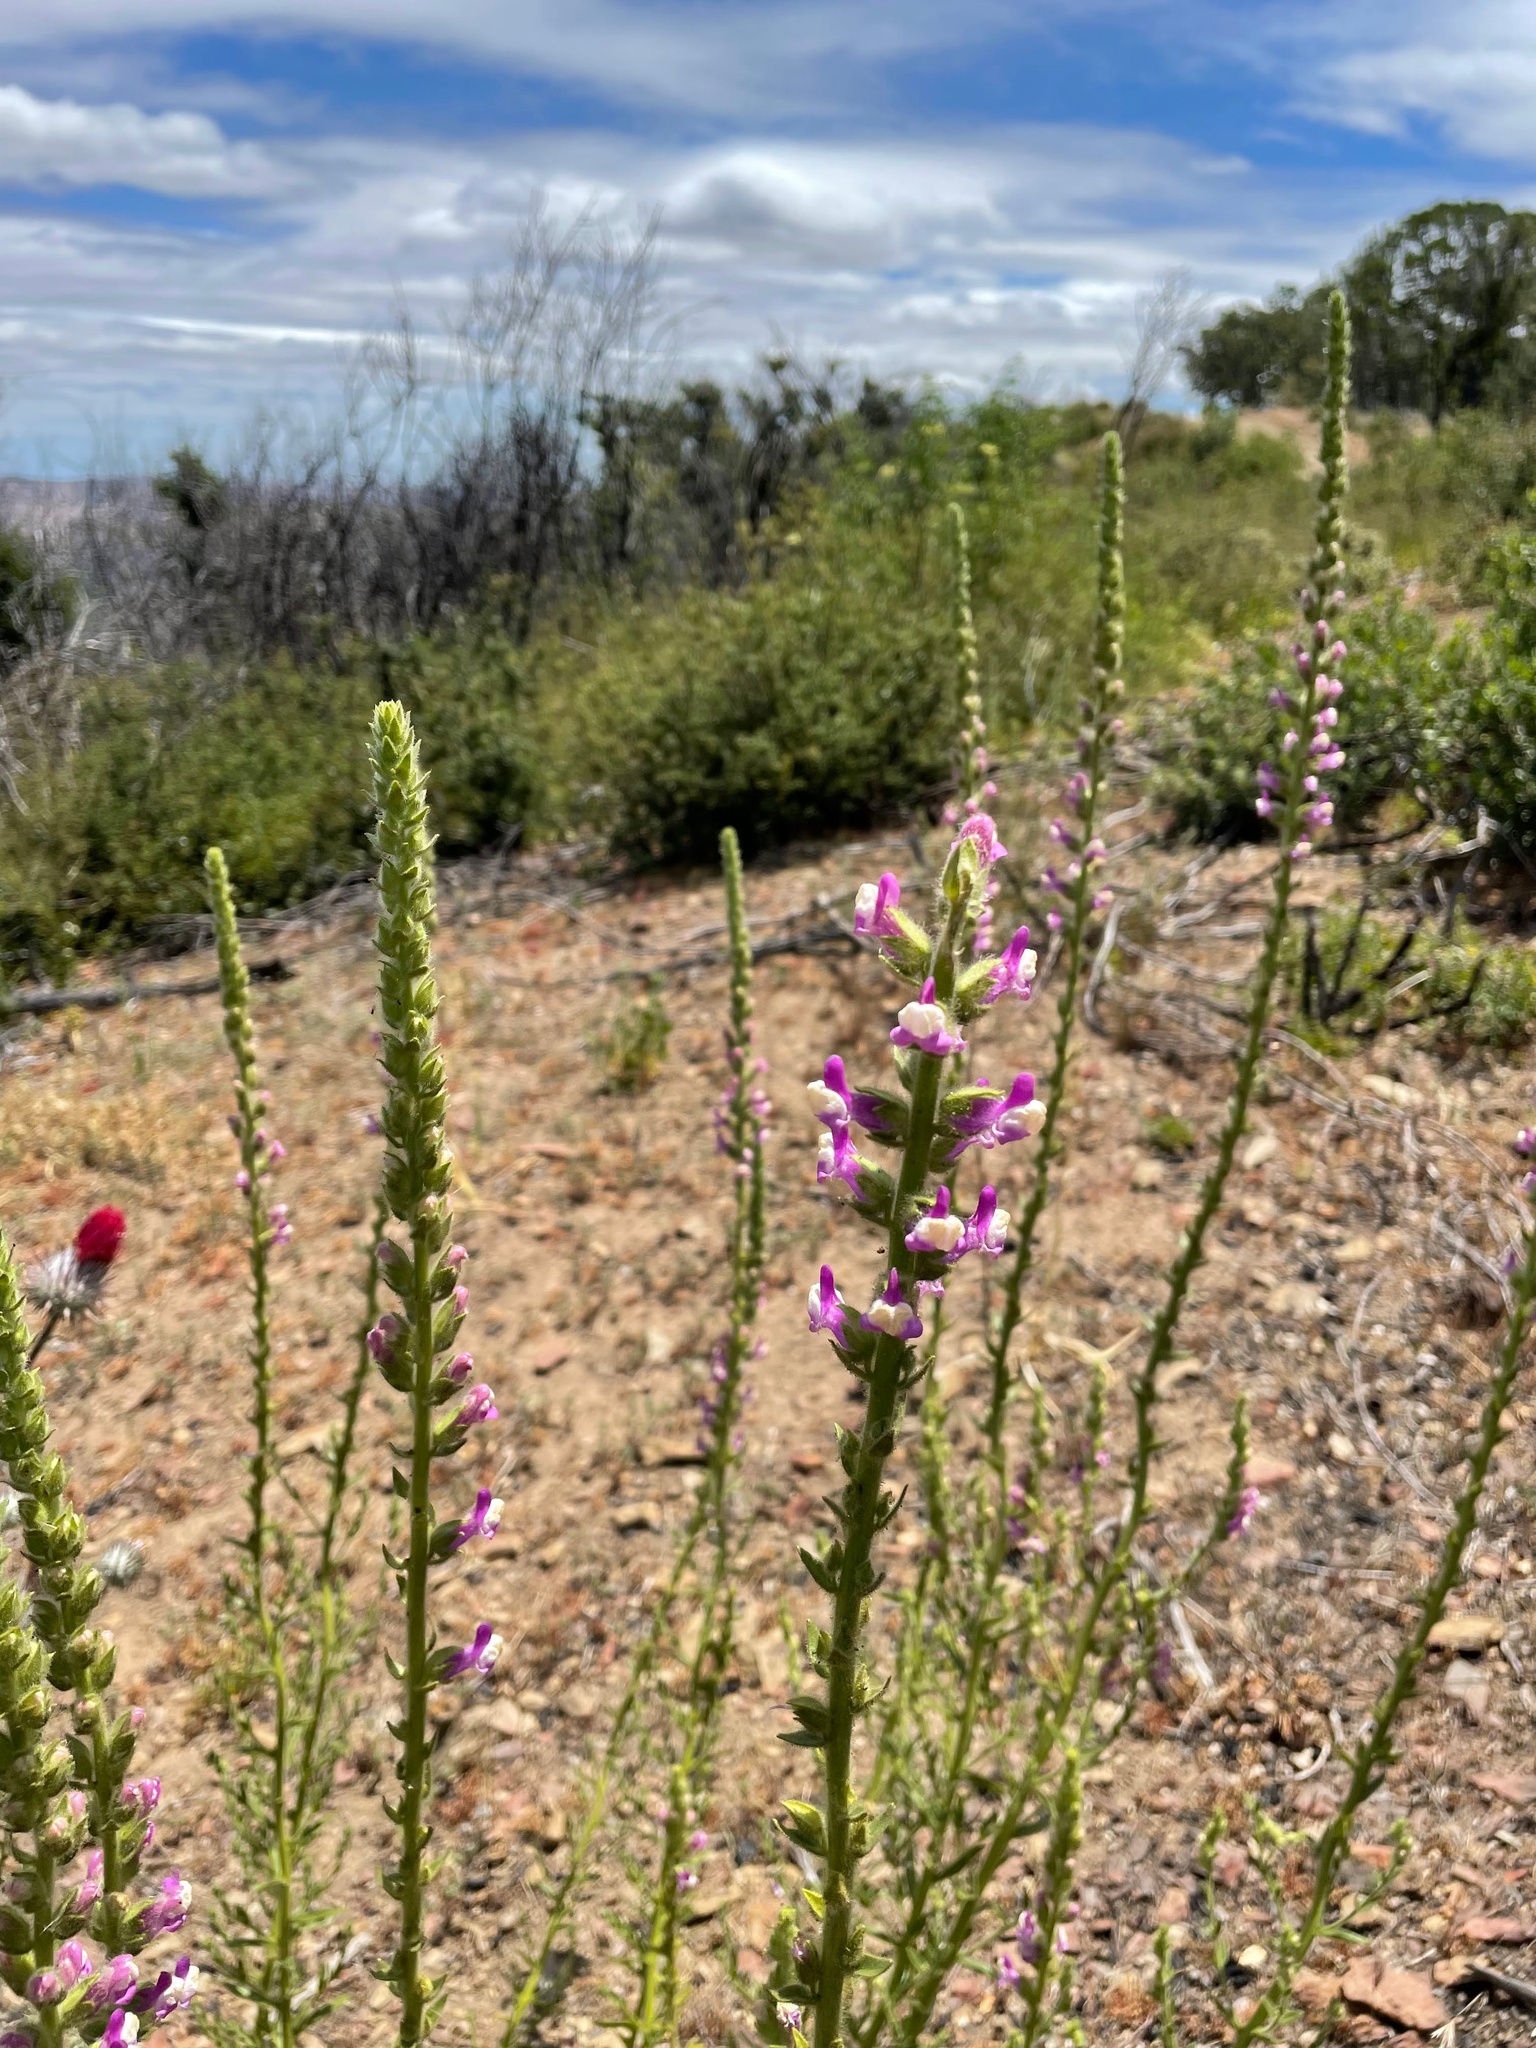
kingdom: Plantae
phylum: Tracheophyta
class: Magnoliopsida
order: Lamiales
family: Plantaginaceae
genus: Sairocarpus
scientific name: Sairocarpus multiflorus
